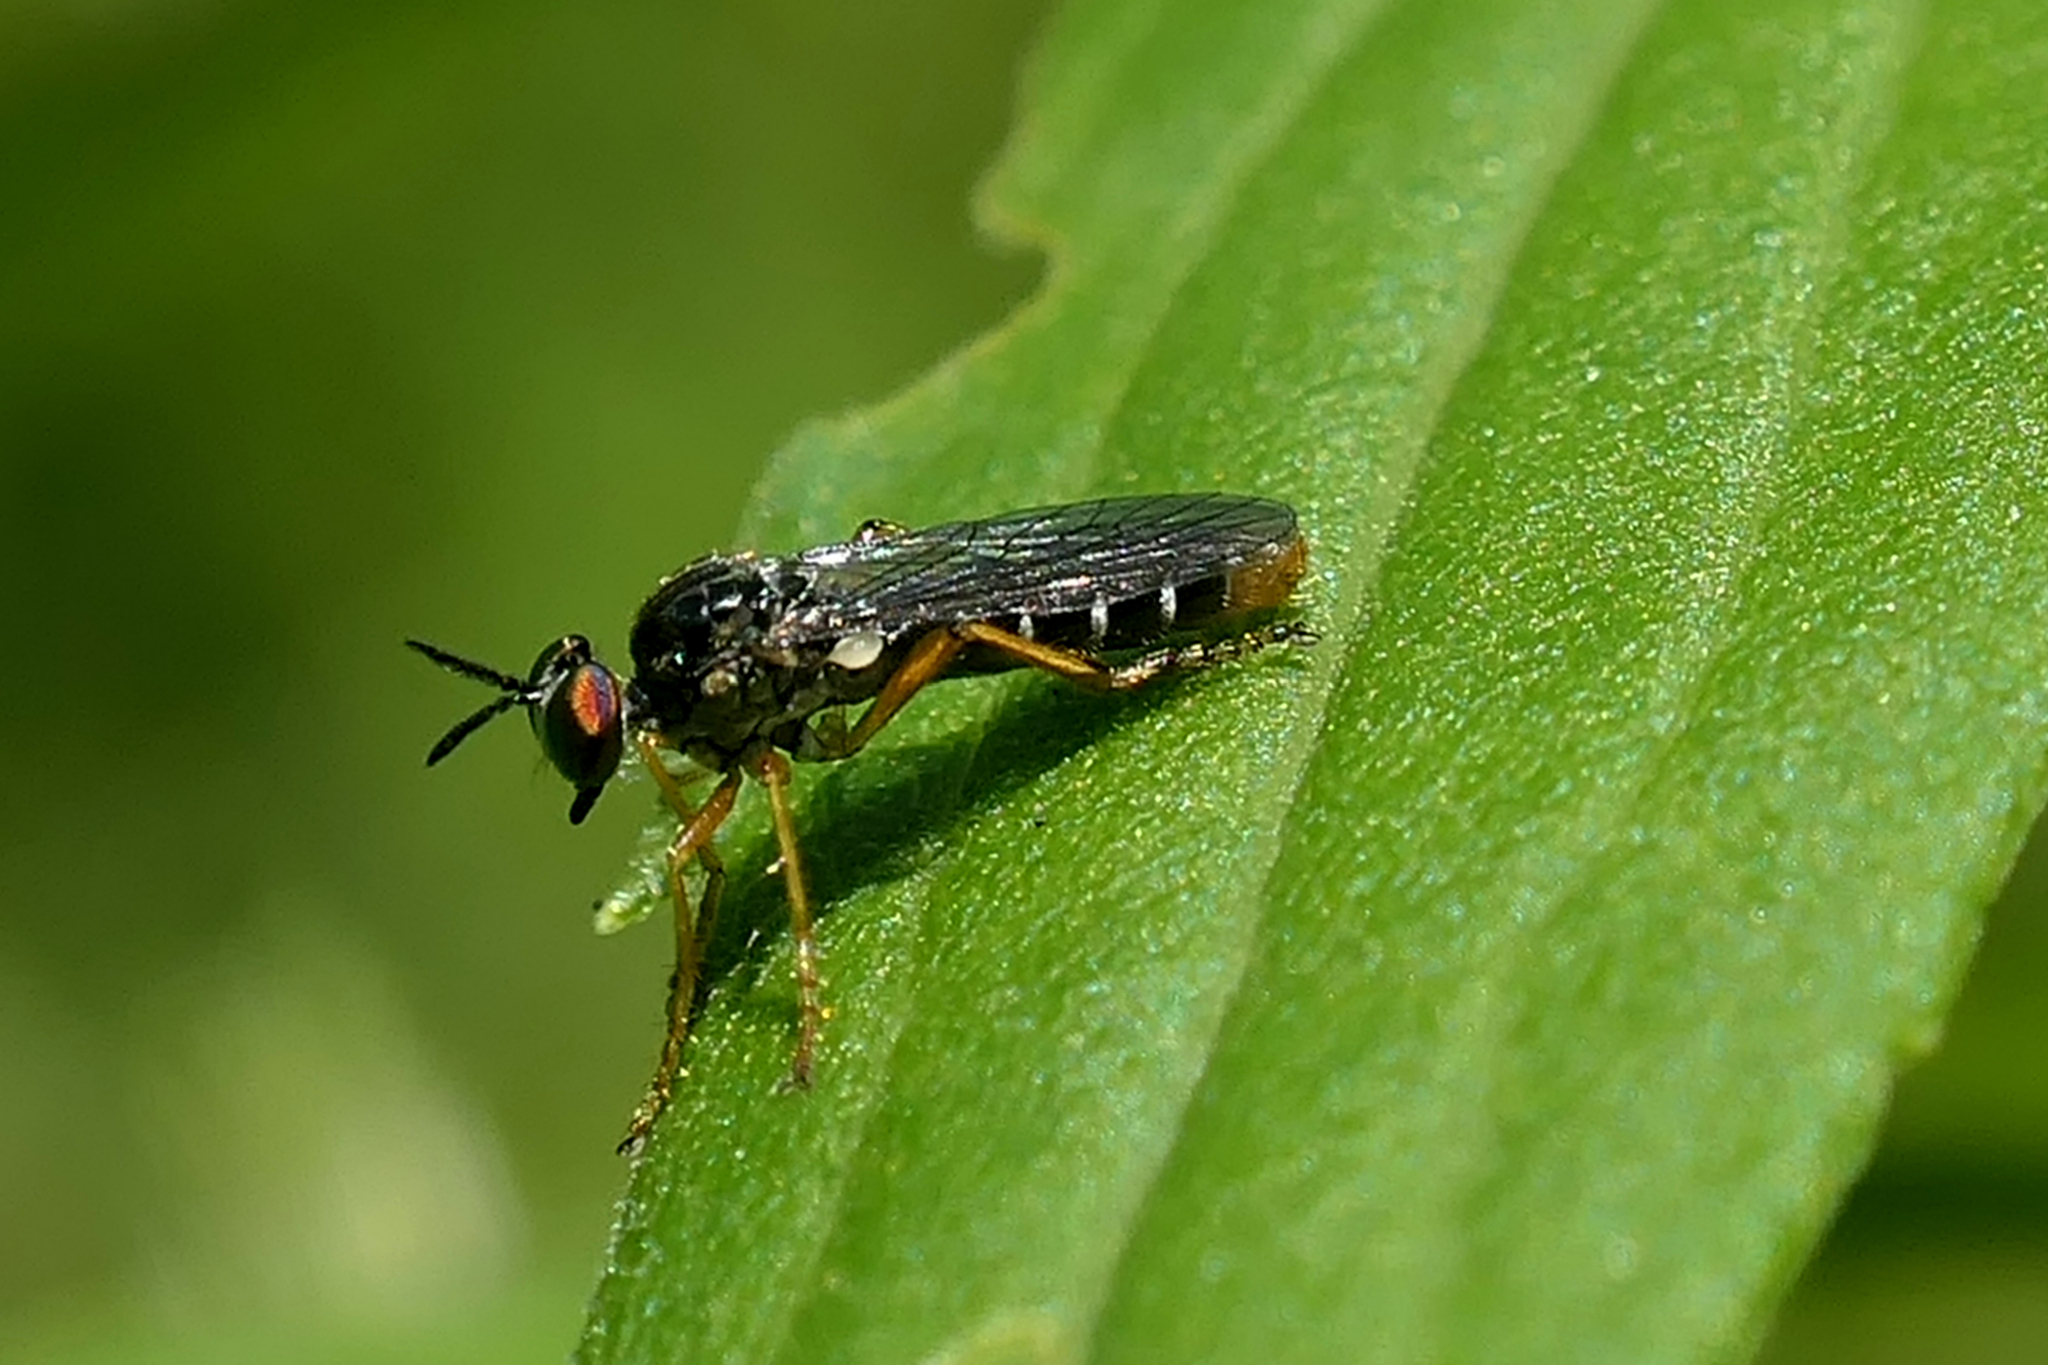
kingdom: Animalia
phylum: Arthropoda
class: Insecta
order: Diptera
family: Asilidae
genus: Taracticus
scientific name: Taracticus octopunctatus
